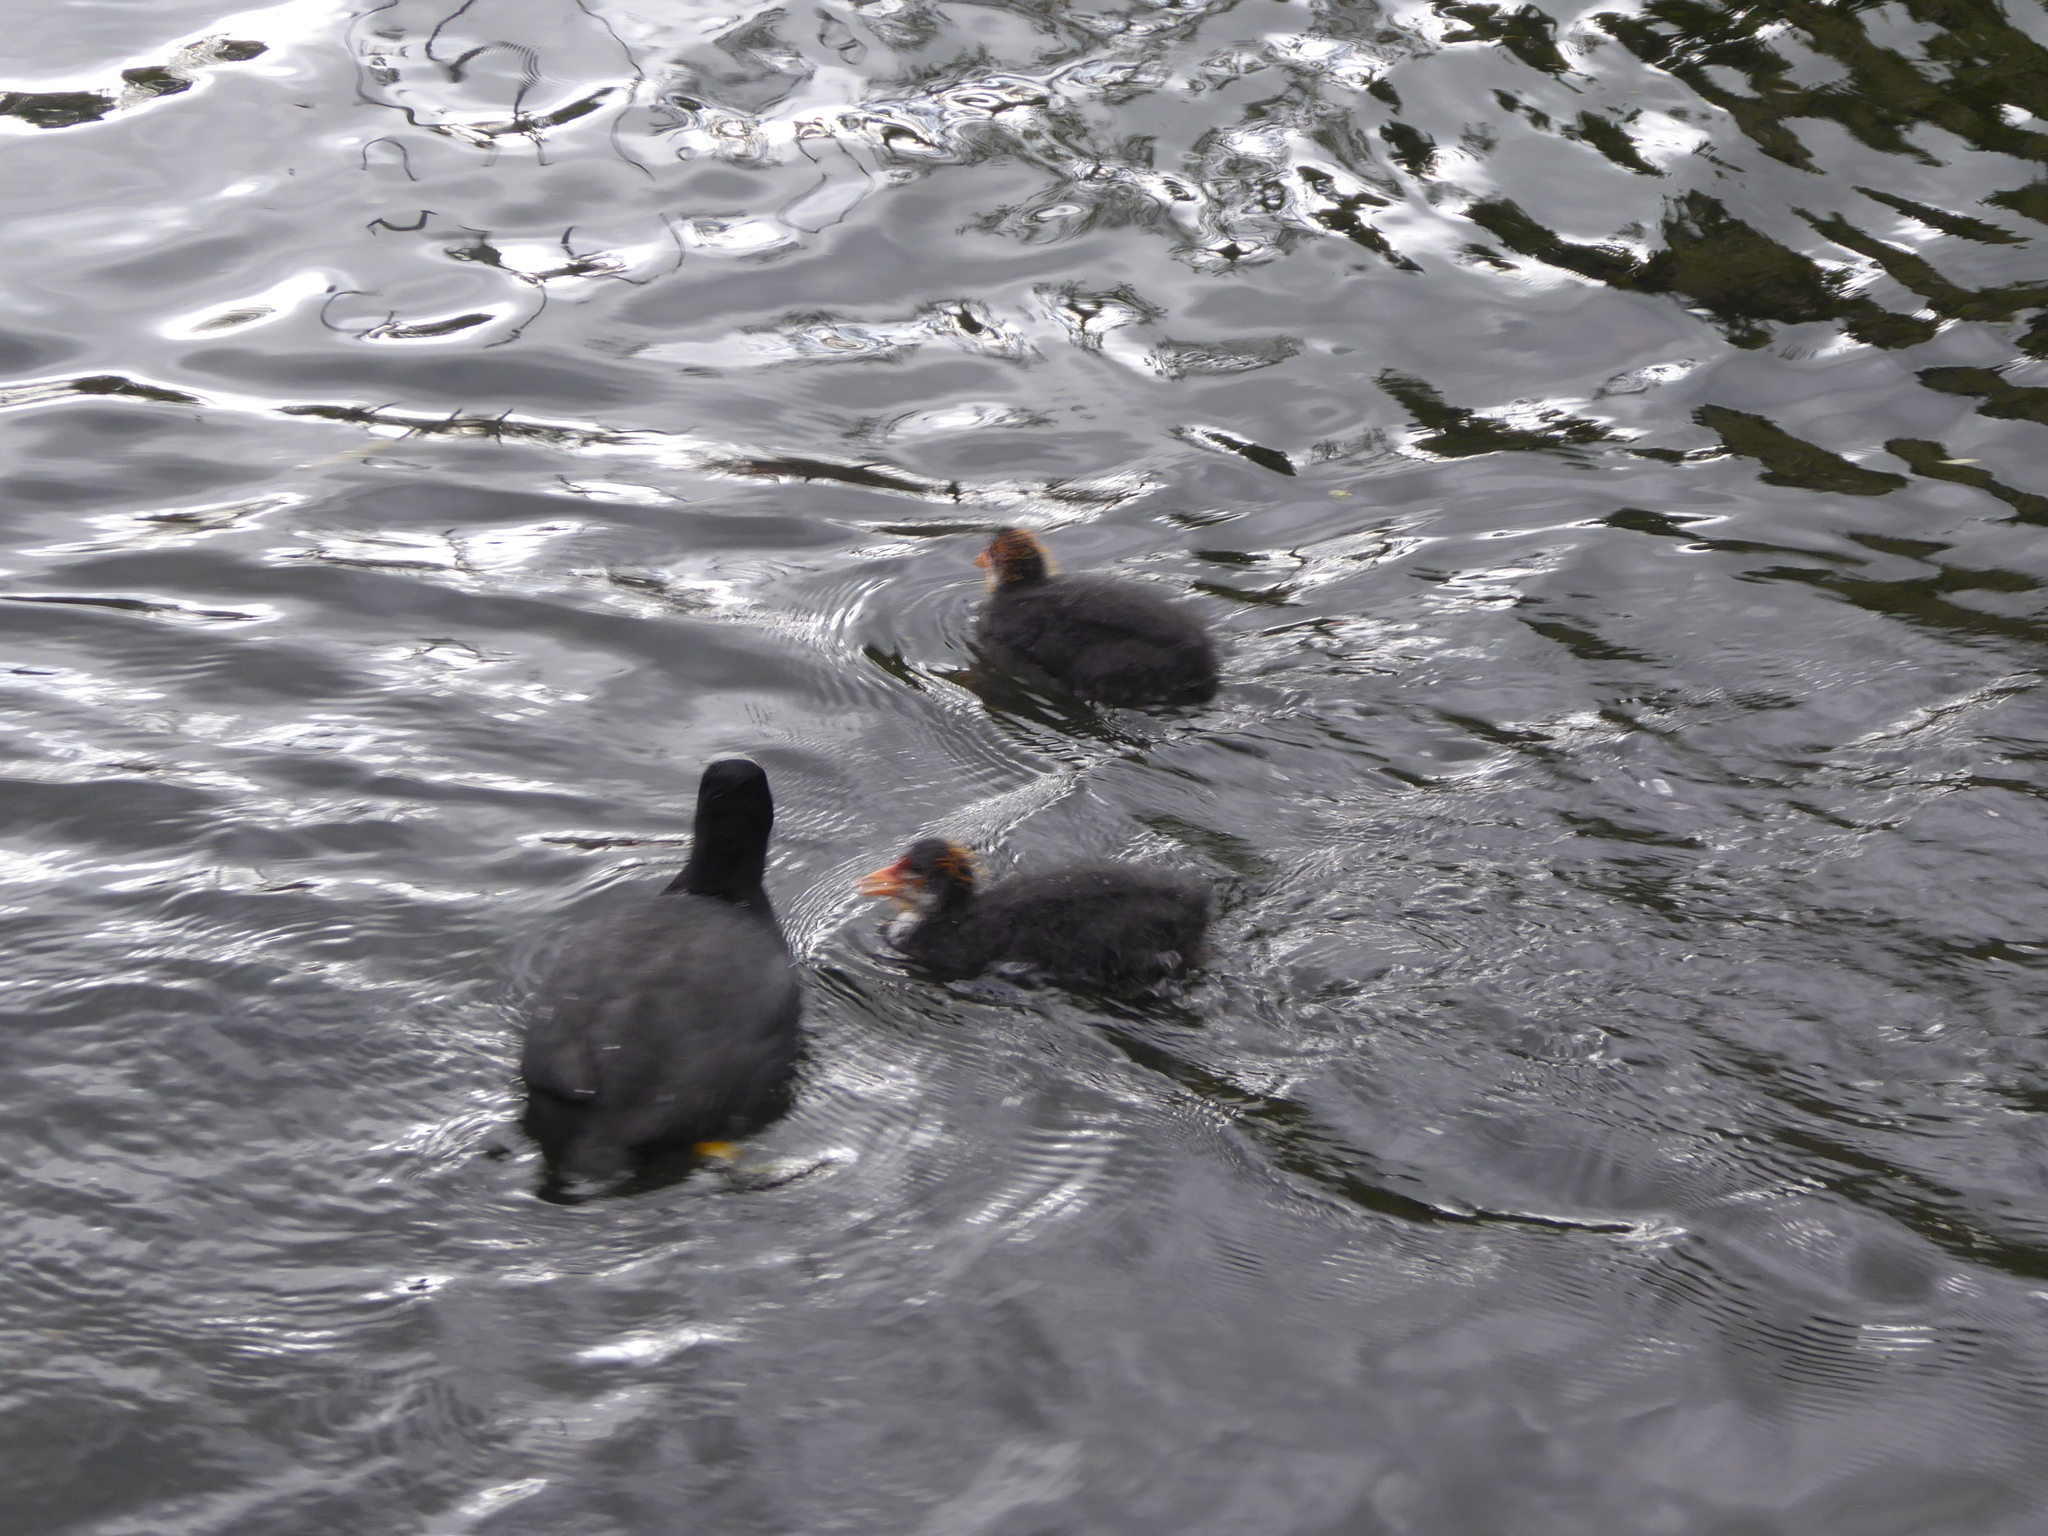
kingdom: Animalia
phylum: Chordata
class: Aves
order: Gruiformes
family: Rallidae
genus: Fulica
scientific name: Fulica atra
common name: Eurasian coot
